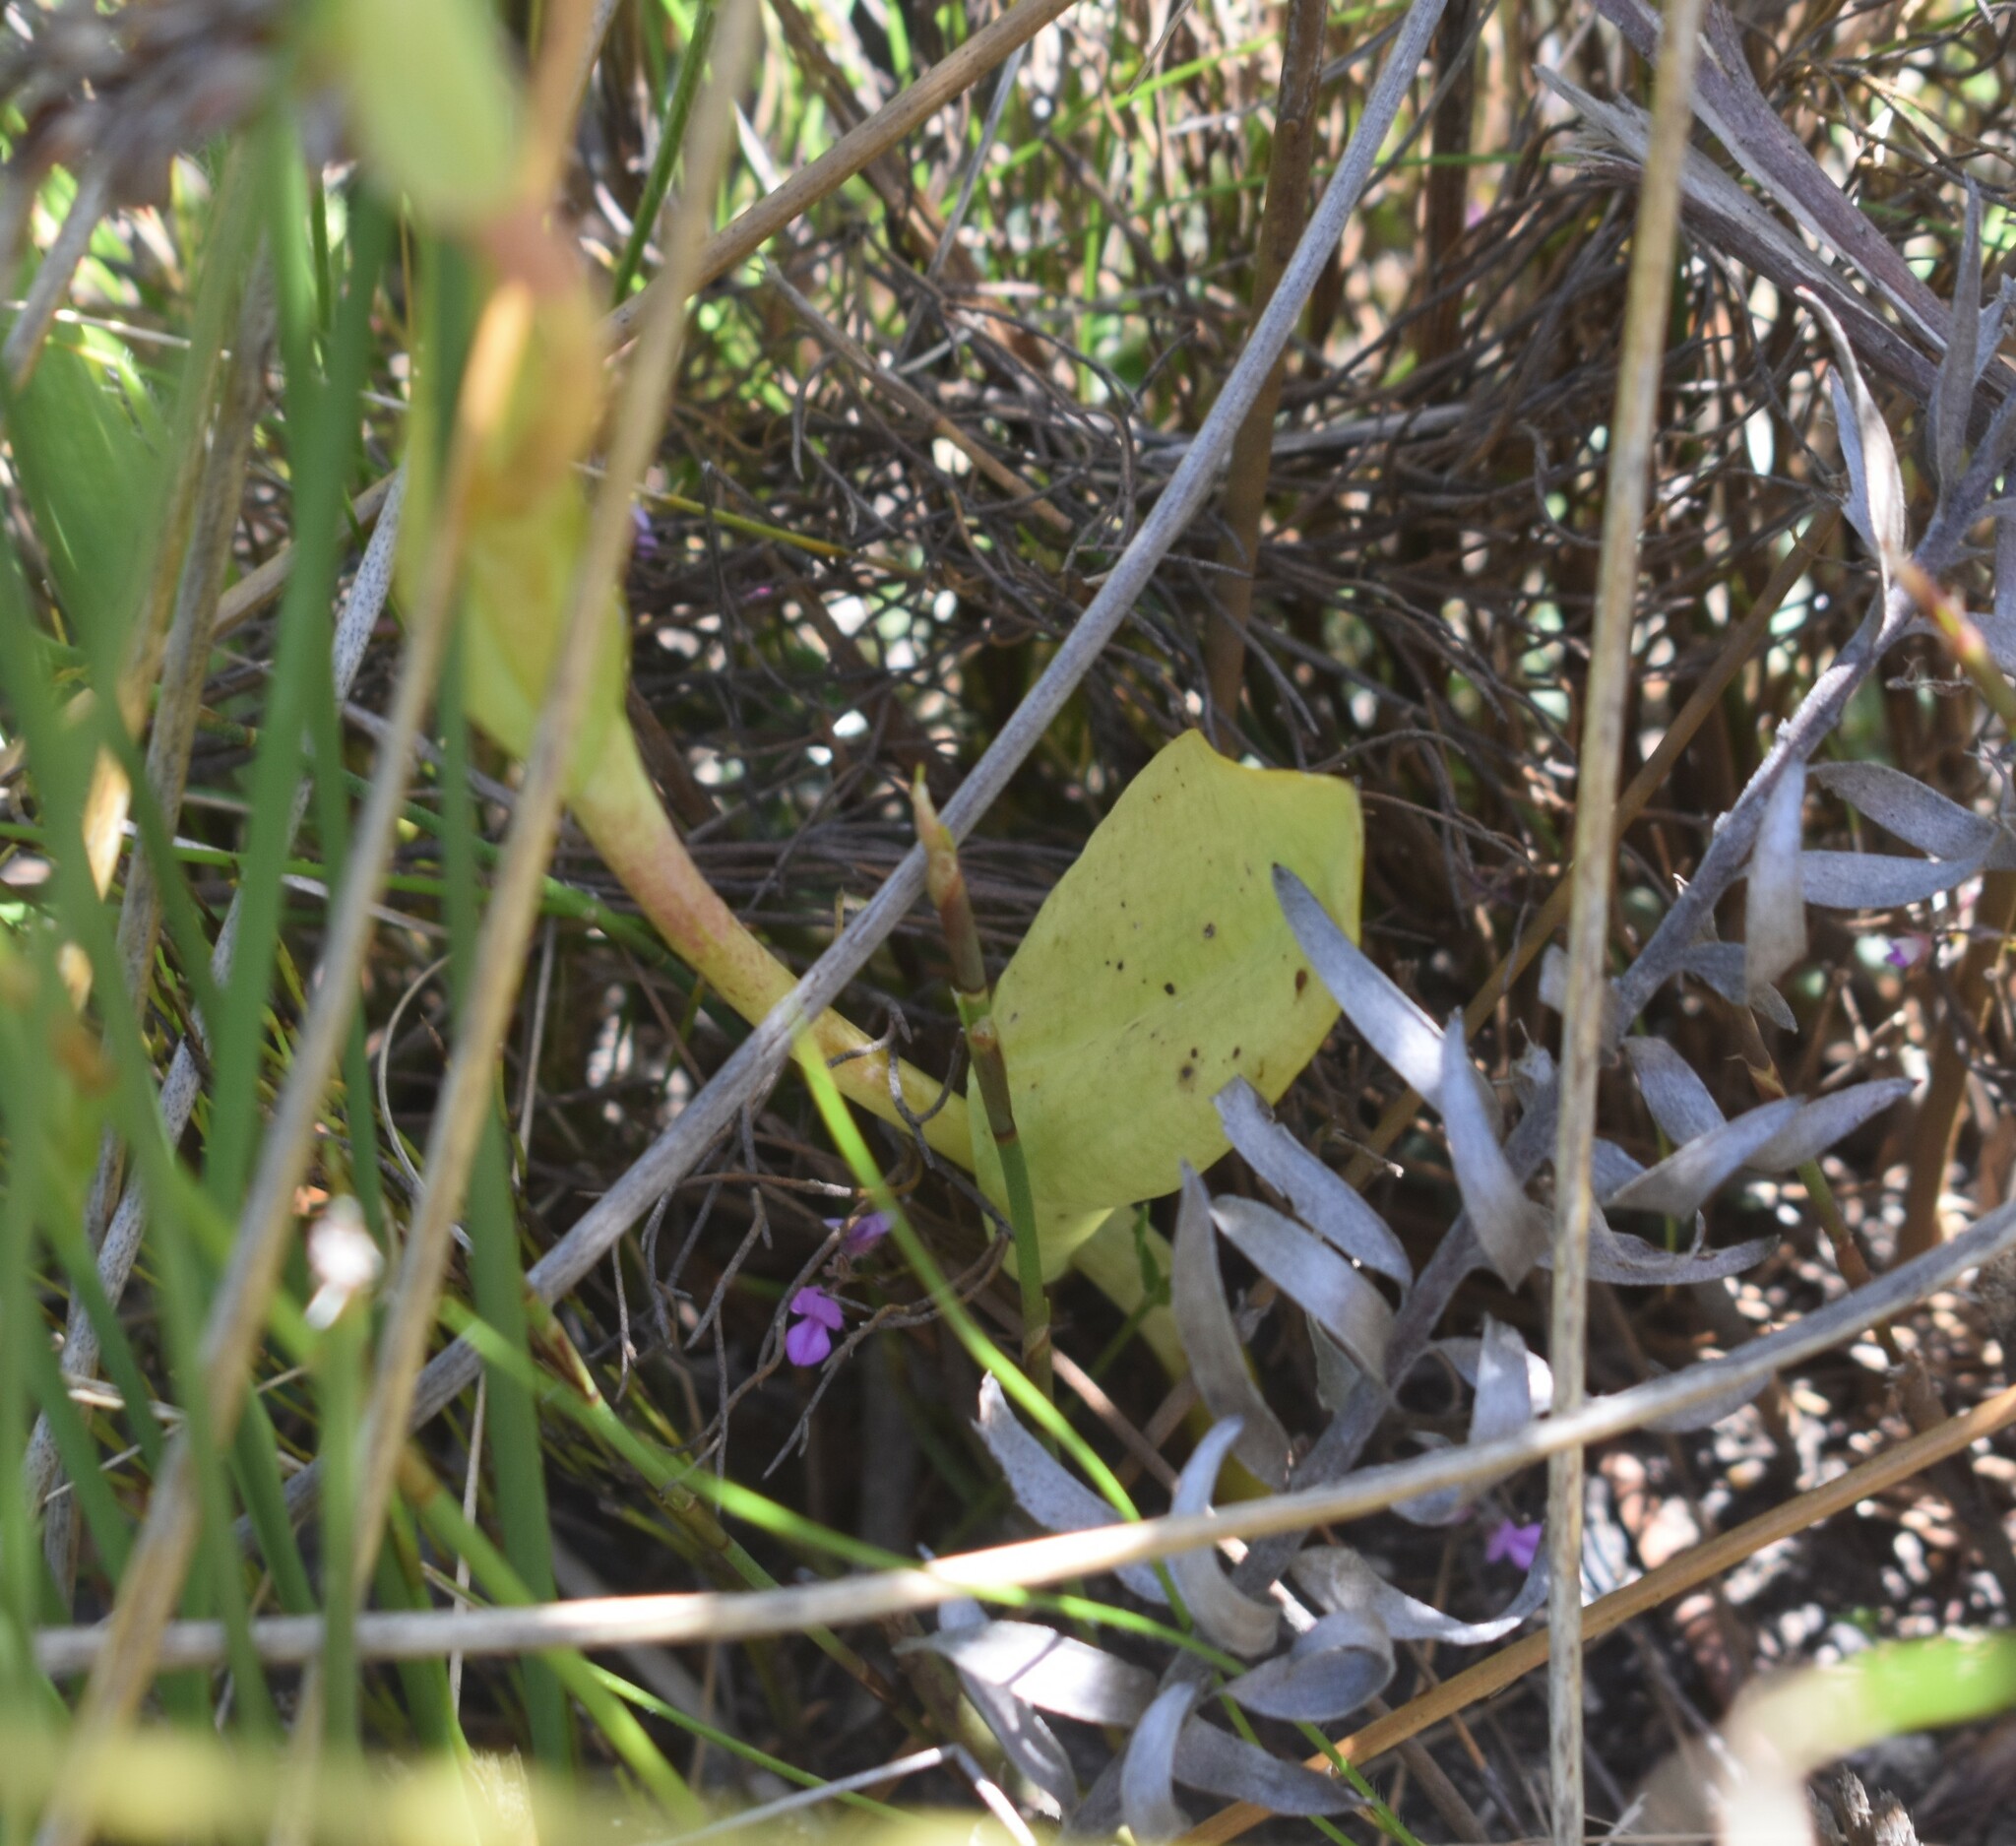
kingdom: Plantae
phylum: Tracheophyta
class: Liliopsida
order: Asparagales
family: Orchidaceae
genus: Pterygodium
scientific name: Pterygodium catholicum
